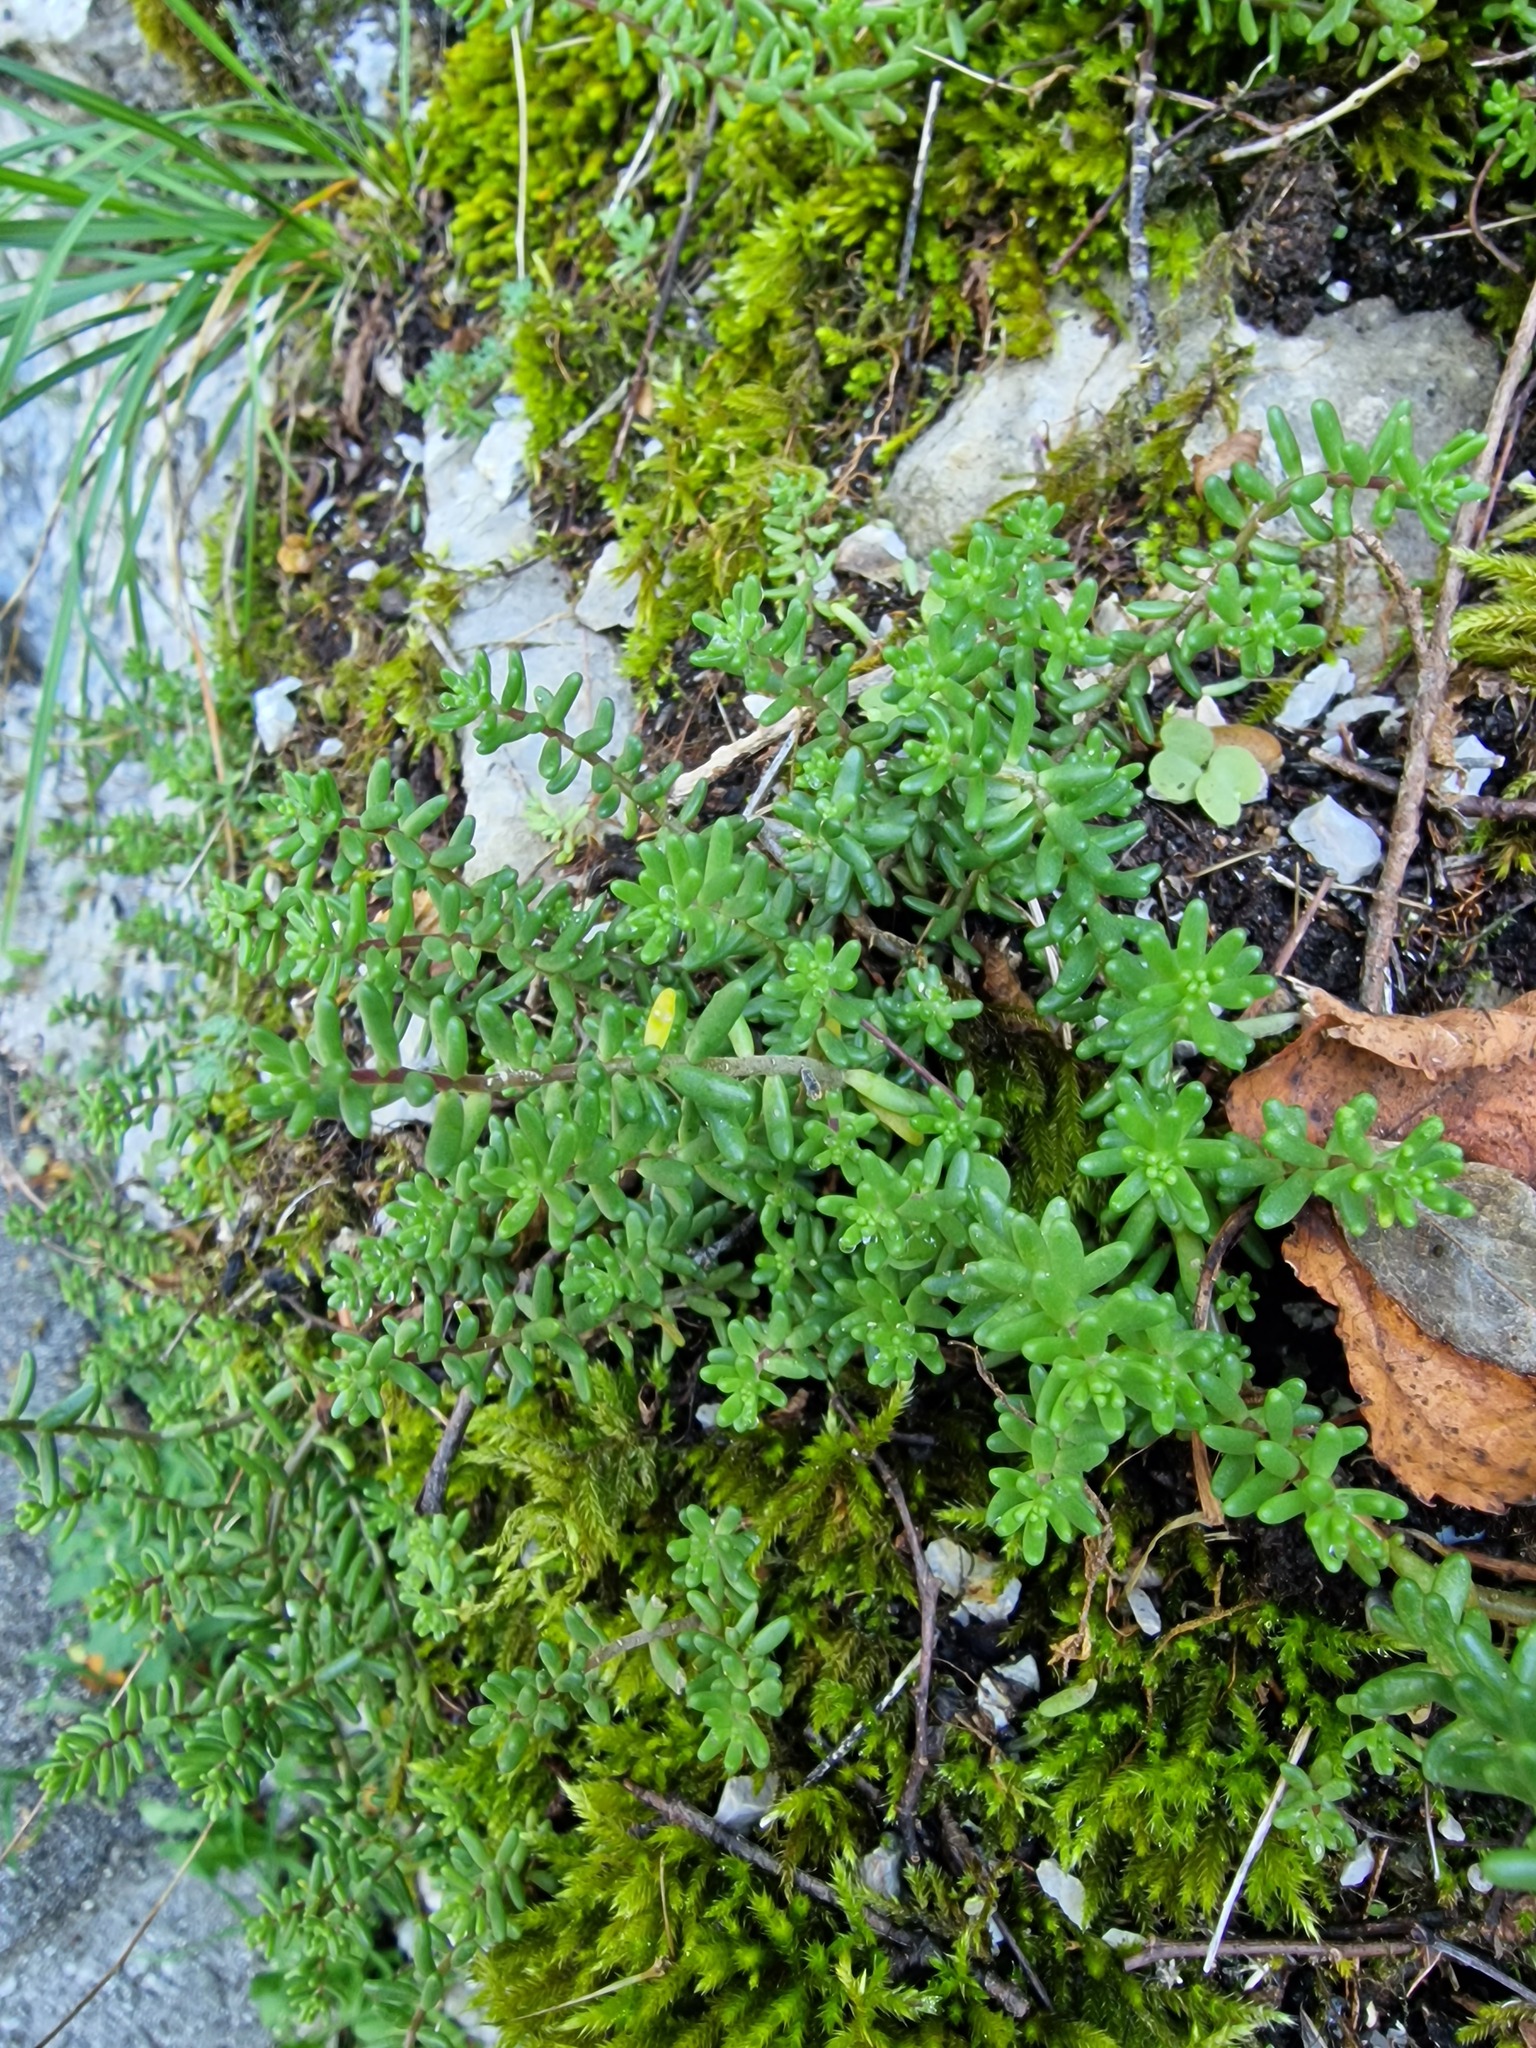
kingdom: Plantae
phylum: Tracheophyta
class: Magnoliopsida
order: Saxifragales
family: Crassulaceae
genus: Sedum
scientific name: Sedum album
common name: White stonecrop
